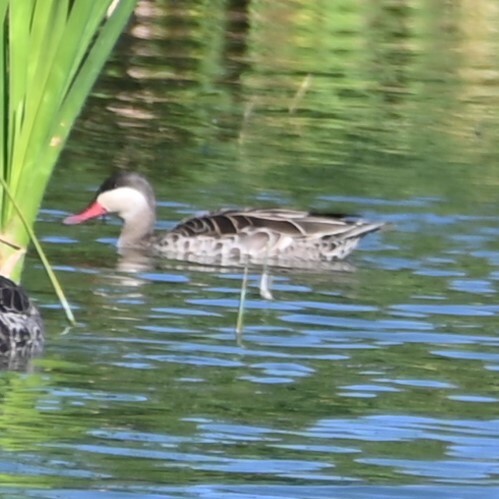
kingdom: Animalia
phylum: Chordata
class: Aves
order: Anseriformes
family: Anatidae
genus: Anas
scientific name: Anas erythrorhyncha
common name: Red-billed teal
